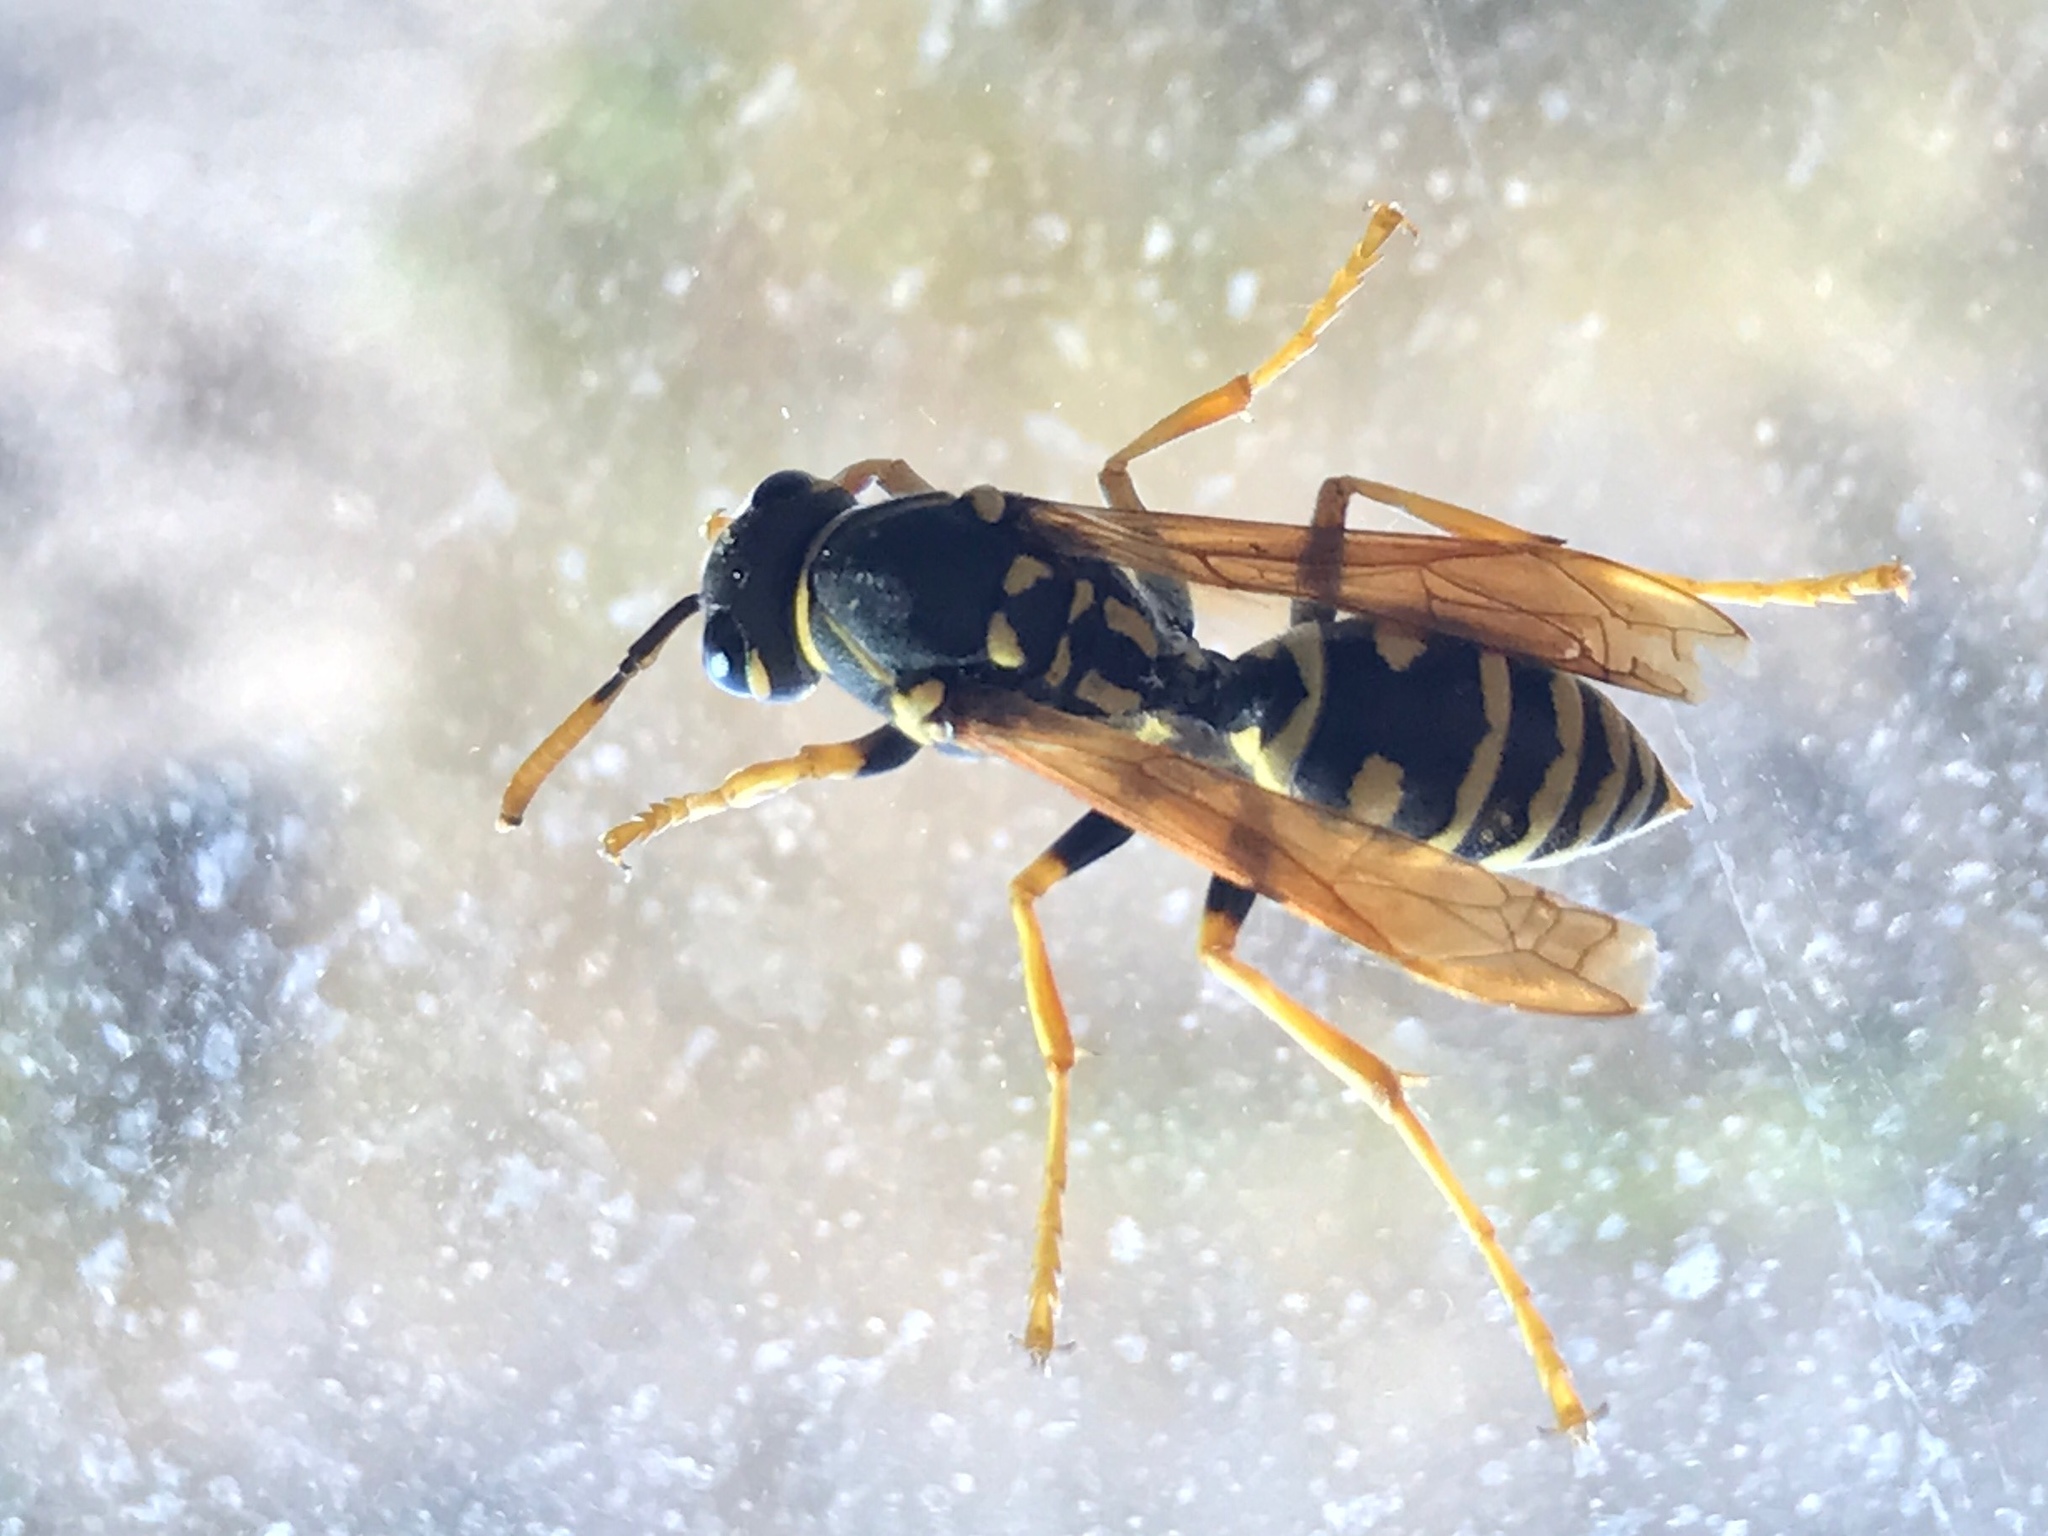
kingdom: Animalia
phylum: Arthropoda
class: Insecta
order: Hymenoptera
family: Eumenidae
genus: Polistes
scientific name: Polistes dominula
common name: Paper wasp
